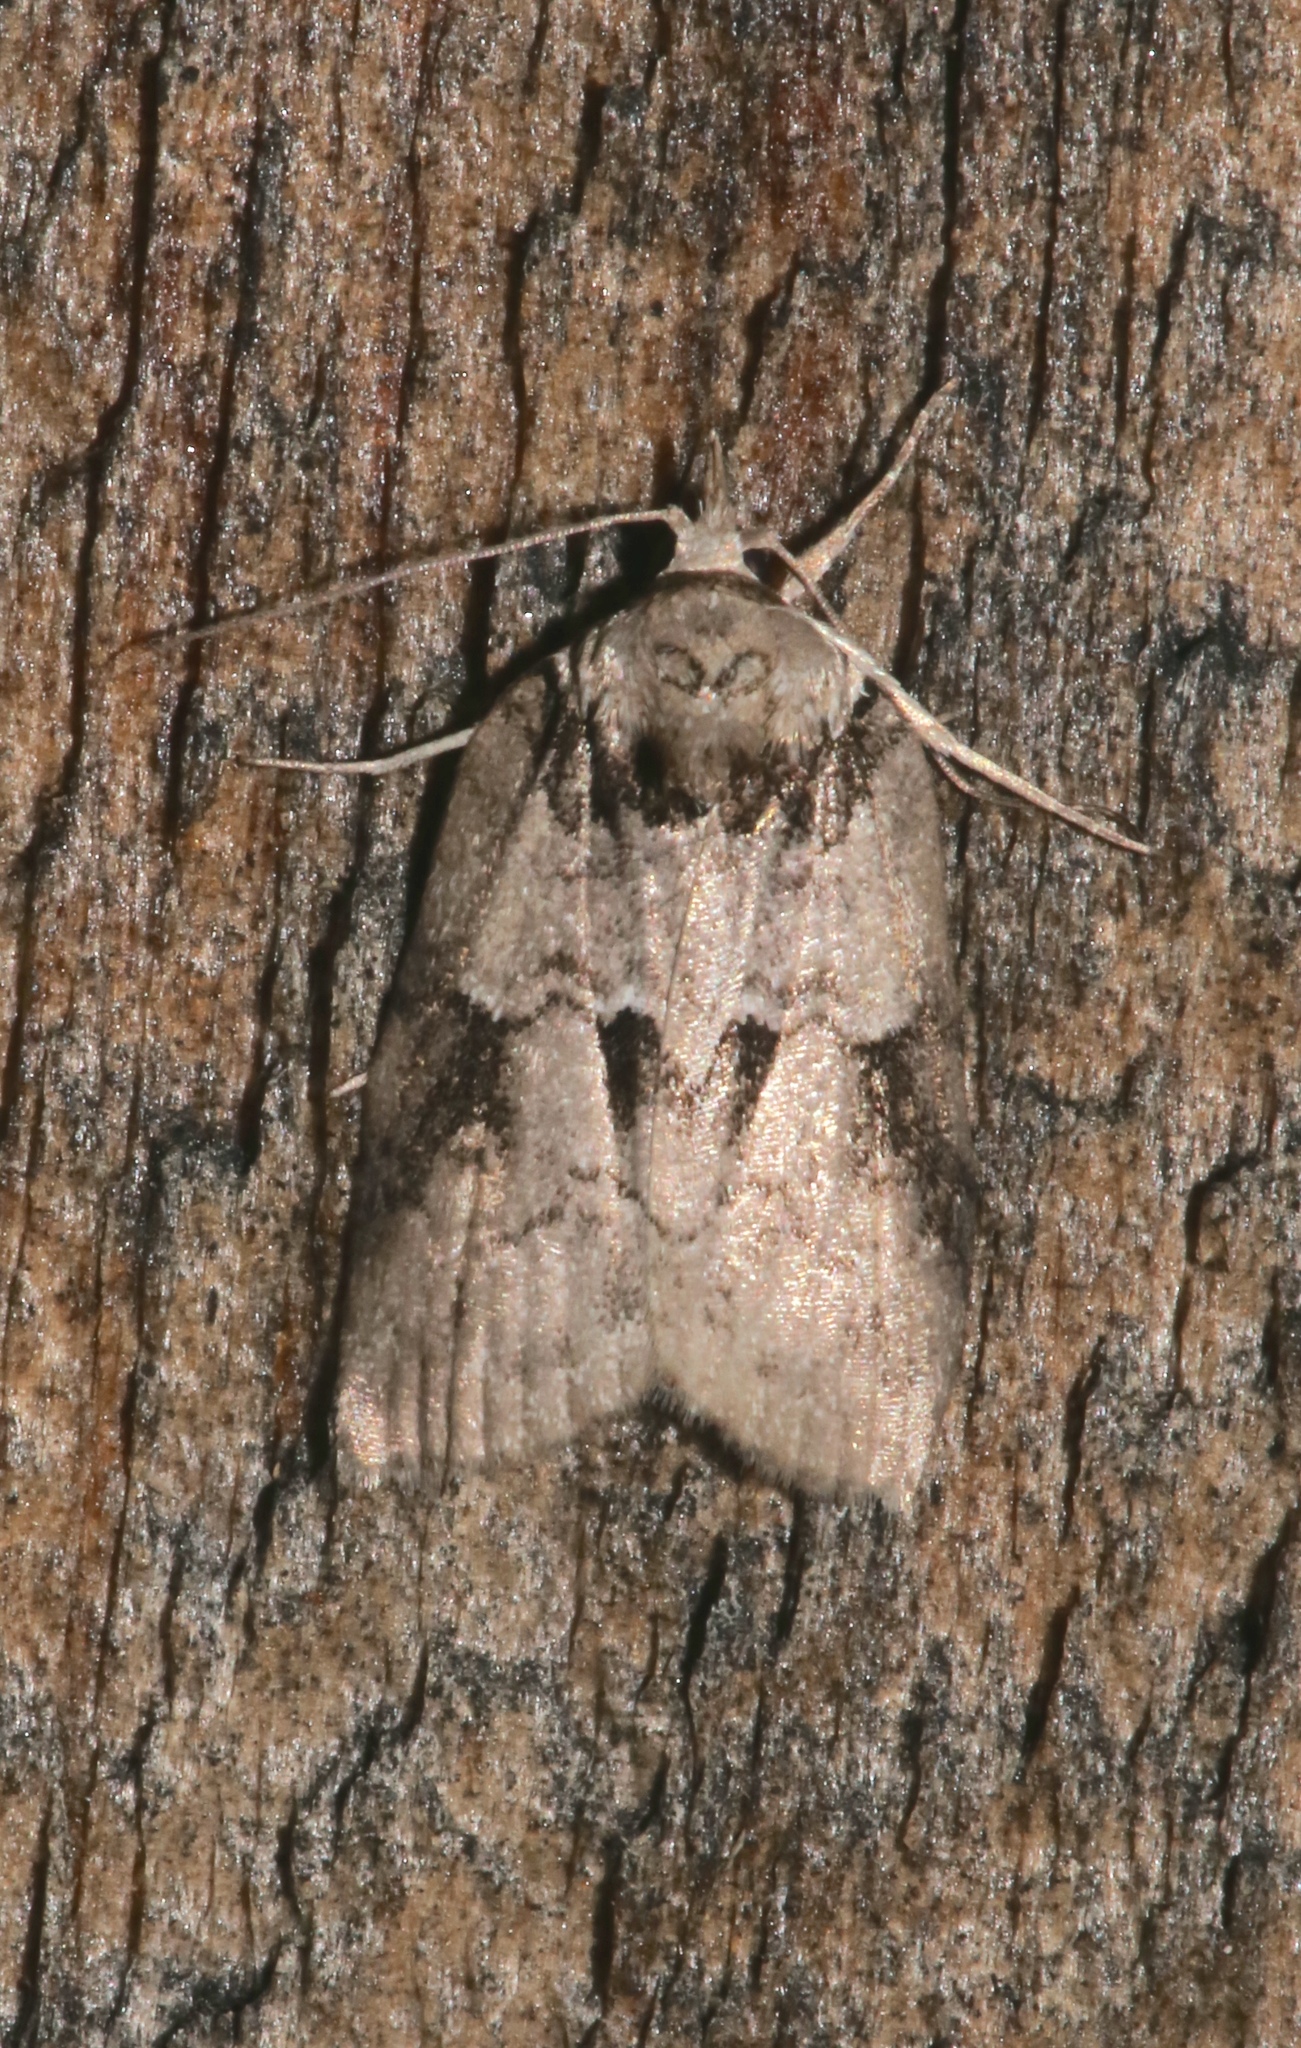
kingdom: Animalia
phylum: Arthropoda
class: Insecta
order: Lepidoptera
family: Nolidae
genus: Nycteola
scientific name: Nycteola frigidana
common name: Frigid owlet
